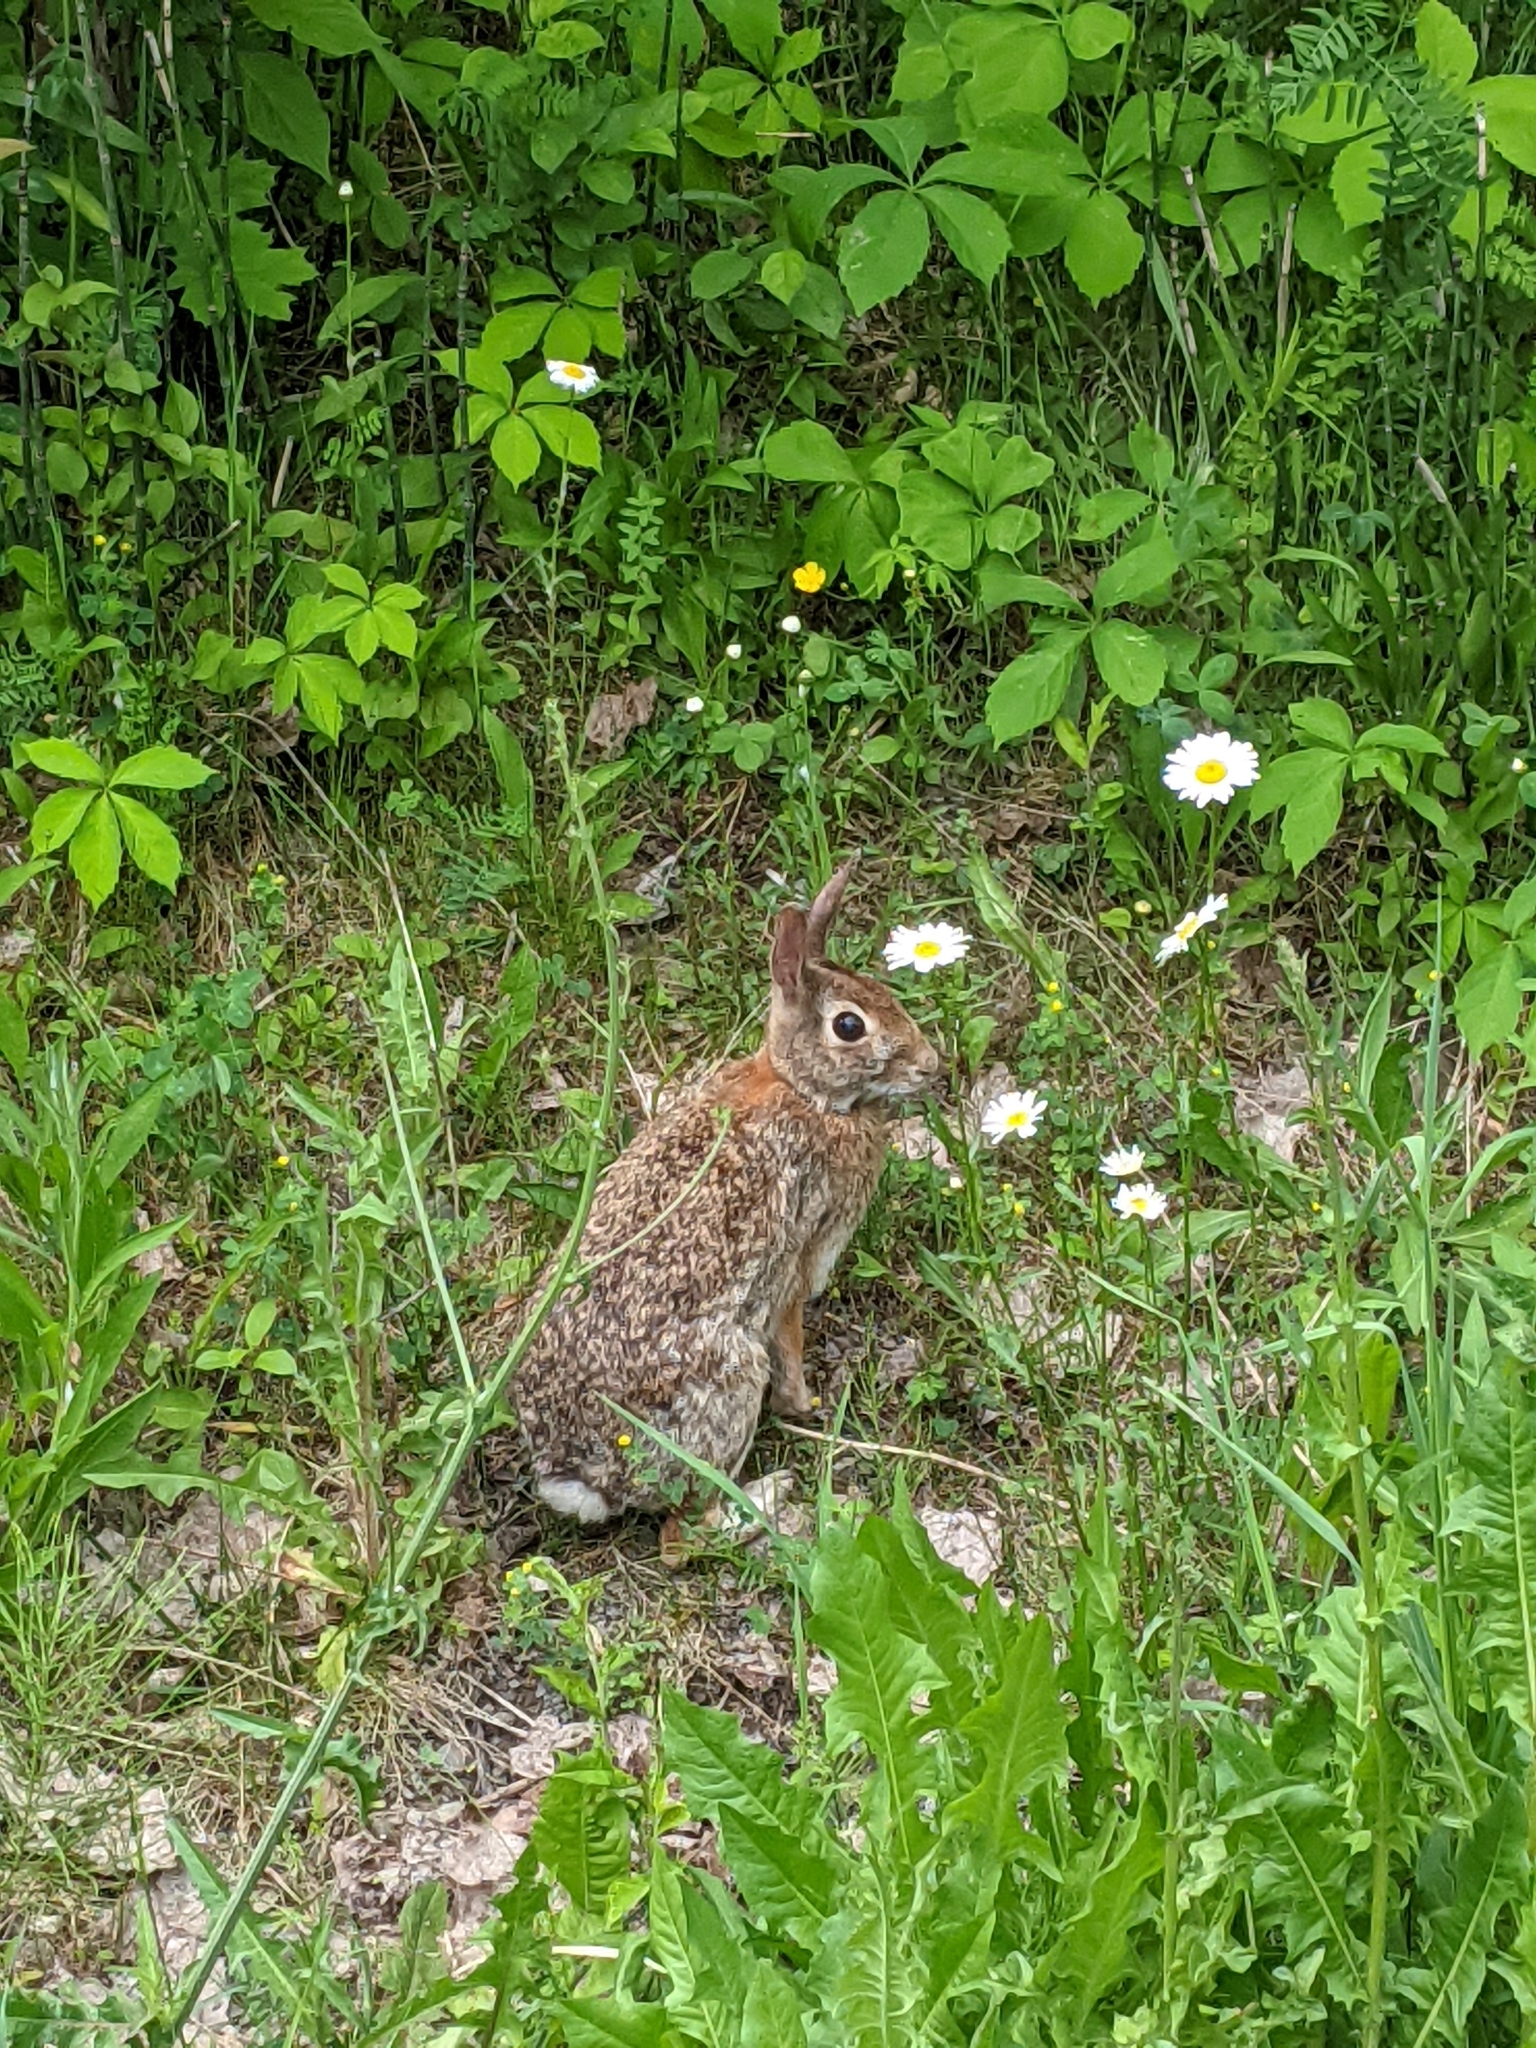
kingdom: Animalia
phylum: Chordata
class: Mammalia
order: Lagomorpha
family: Leporidae
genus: Sylvilagus
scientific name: Sylvilagus floridanus
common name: Eastern cottontail
